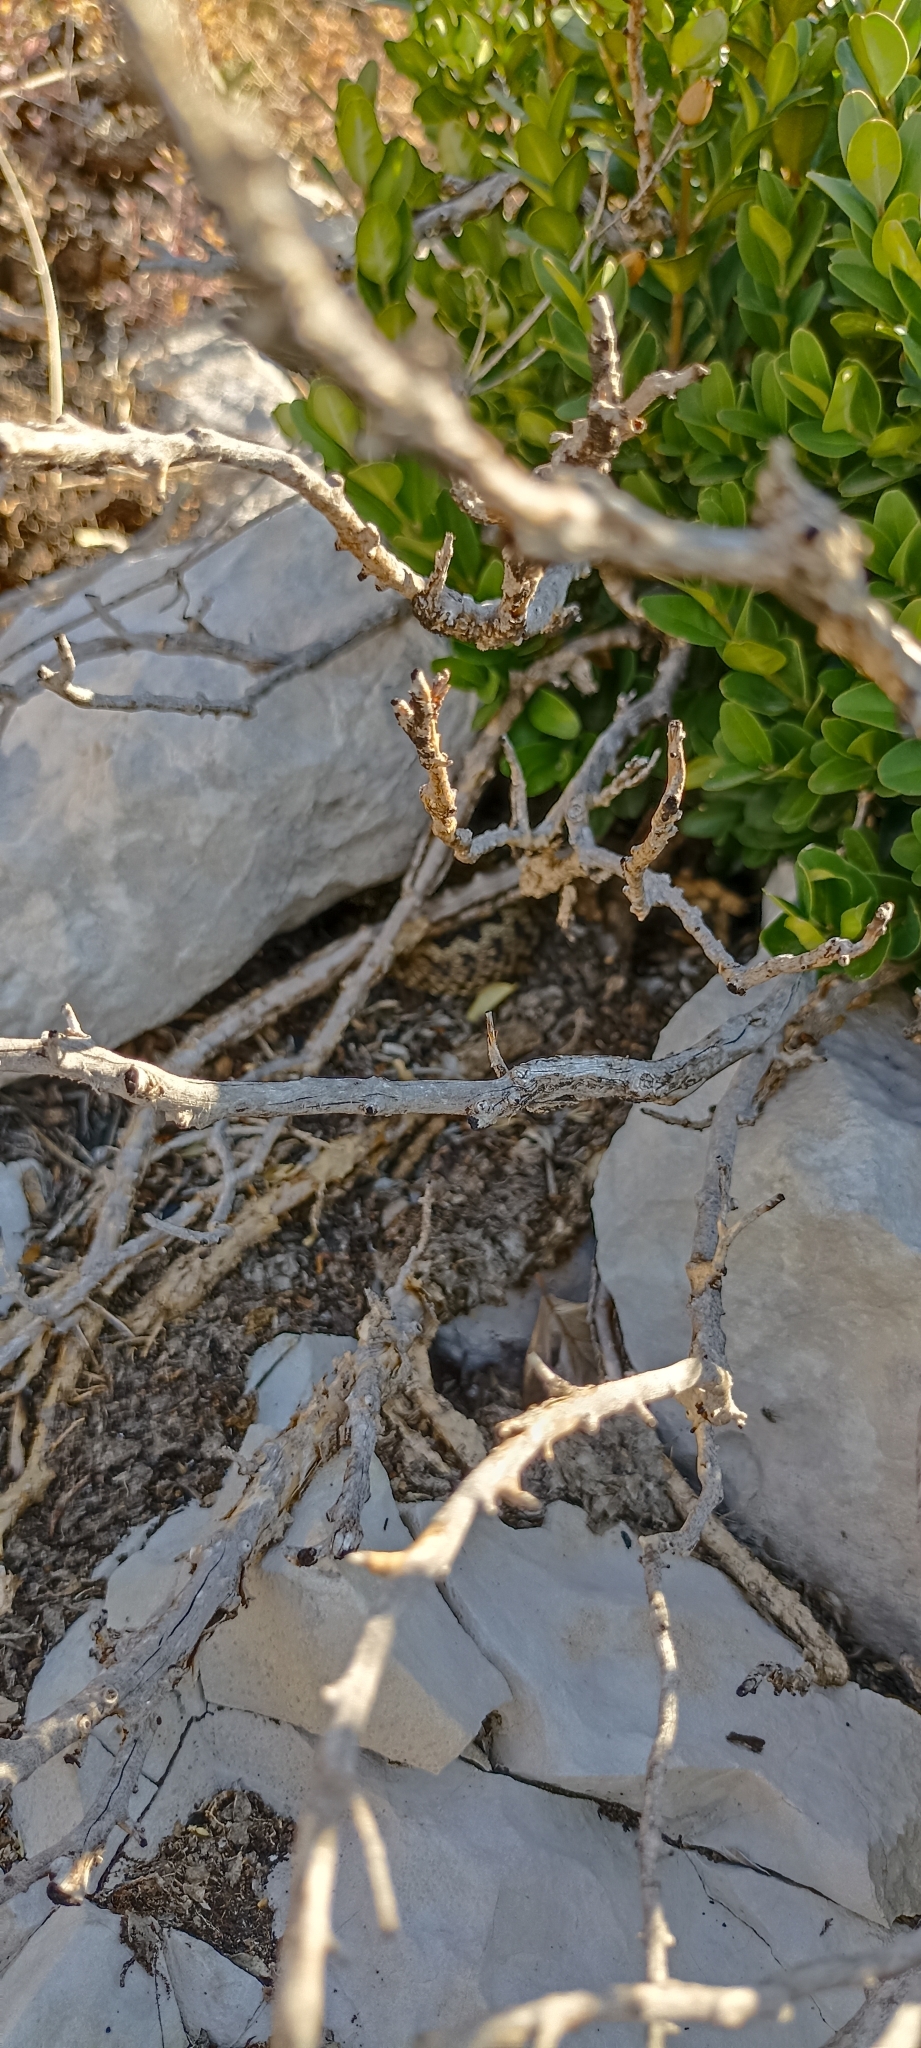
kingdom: Animalia
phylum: Chordata
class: Squamata
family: Viperidae
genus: Vipera
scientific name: Vipera ursinii
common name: Meadow viper
